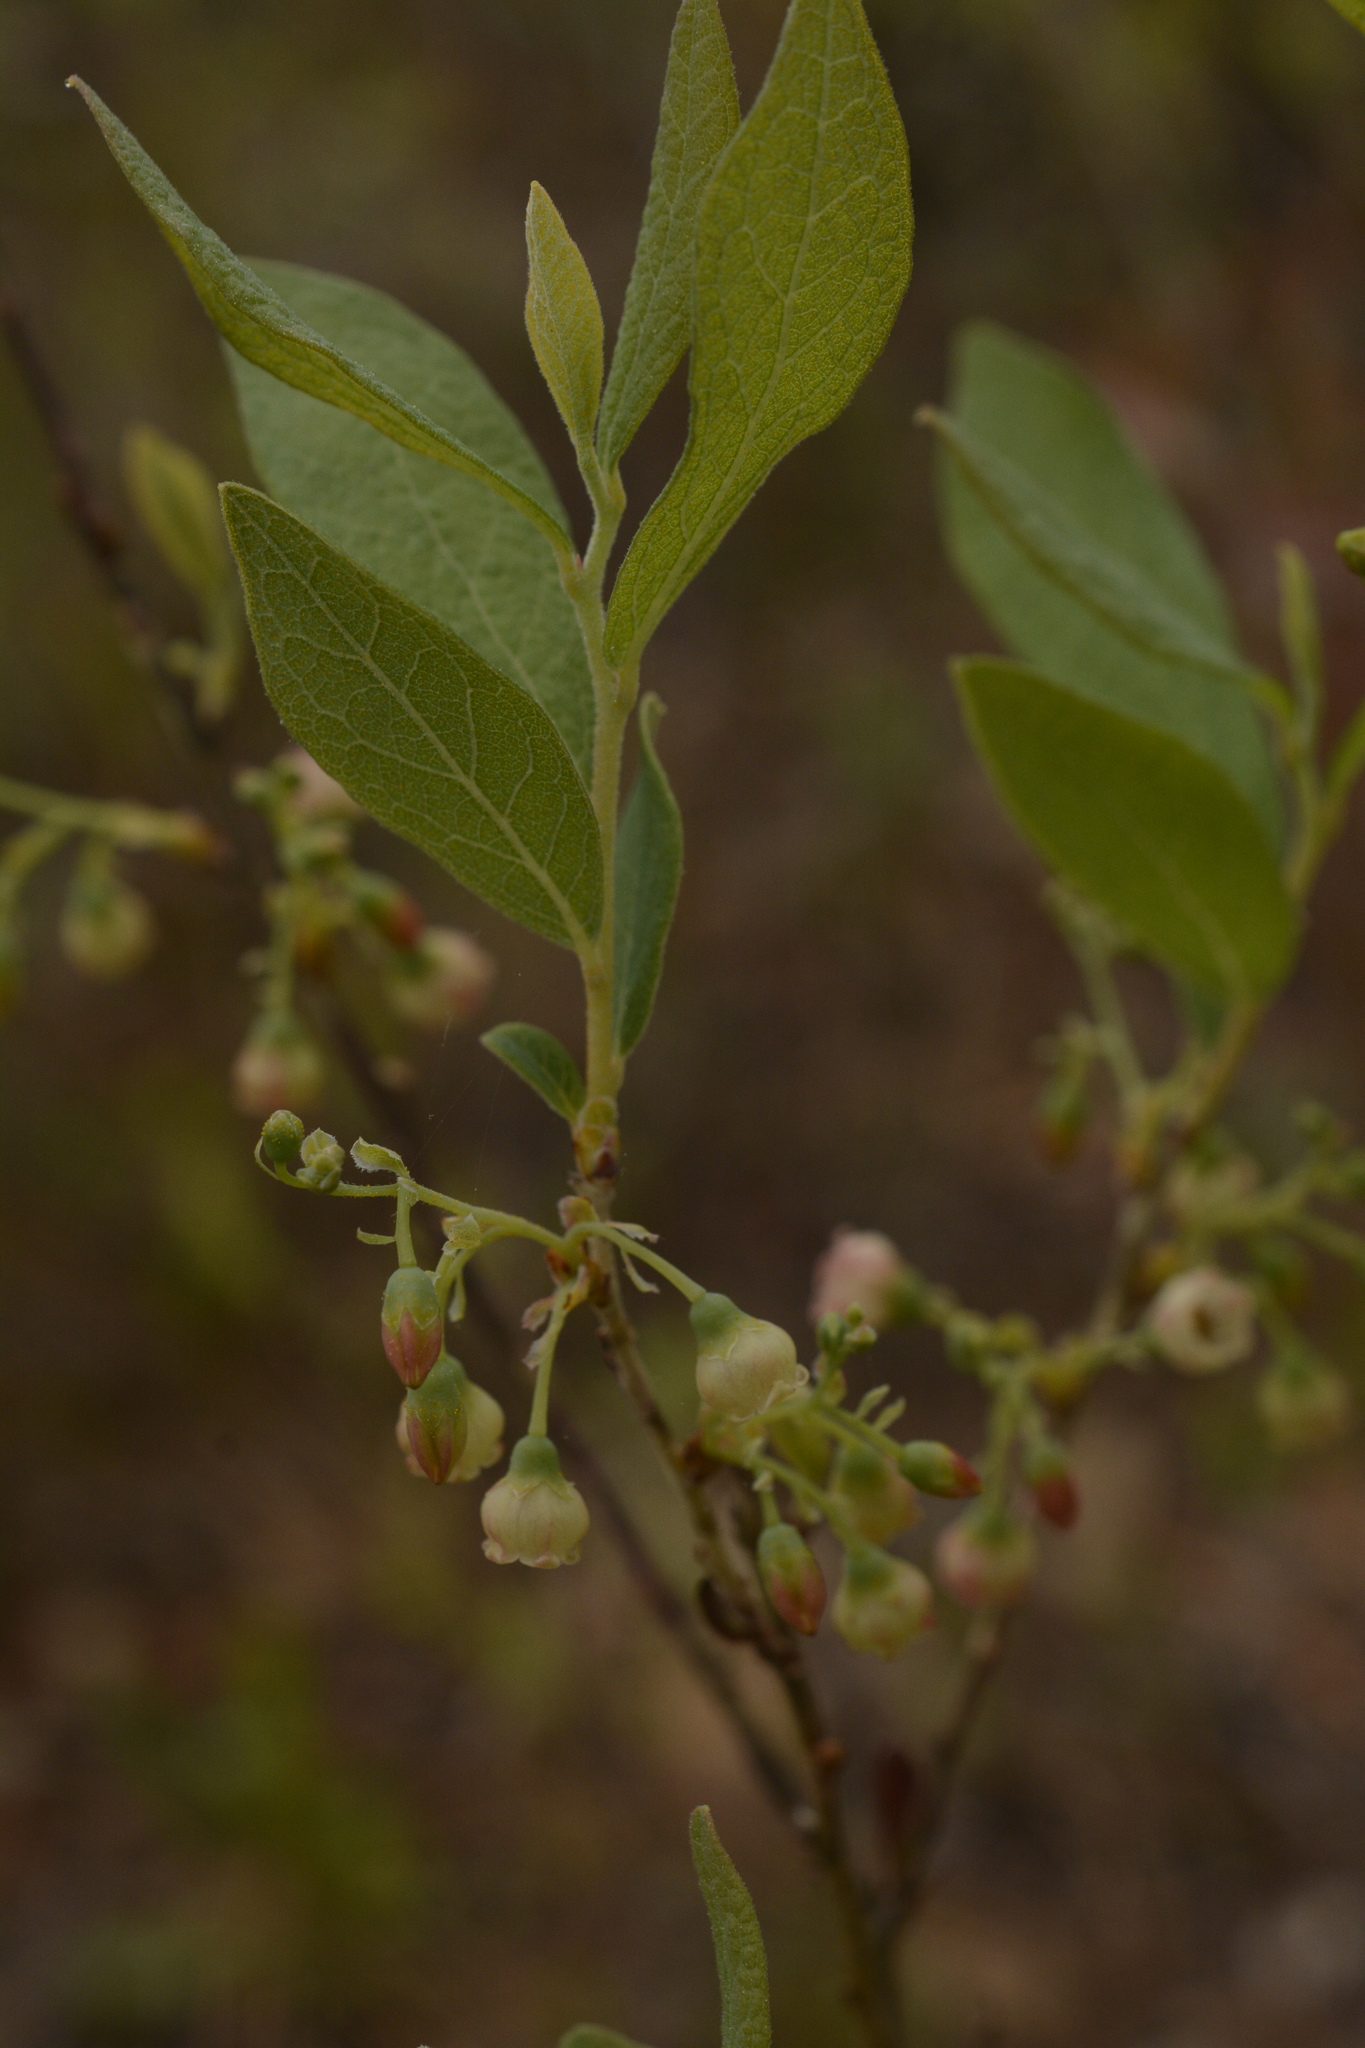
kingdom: Plantae
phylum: Tracheophyta
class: Magnoliopsida
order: Ericales
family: Ericaceae
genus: Gaylussacia
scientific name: Gaylussacia tomentosa
